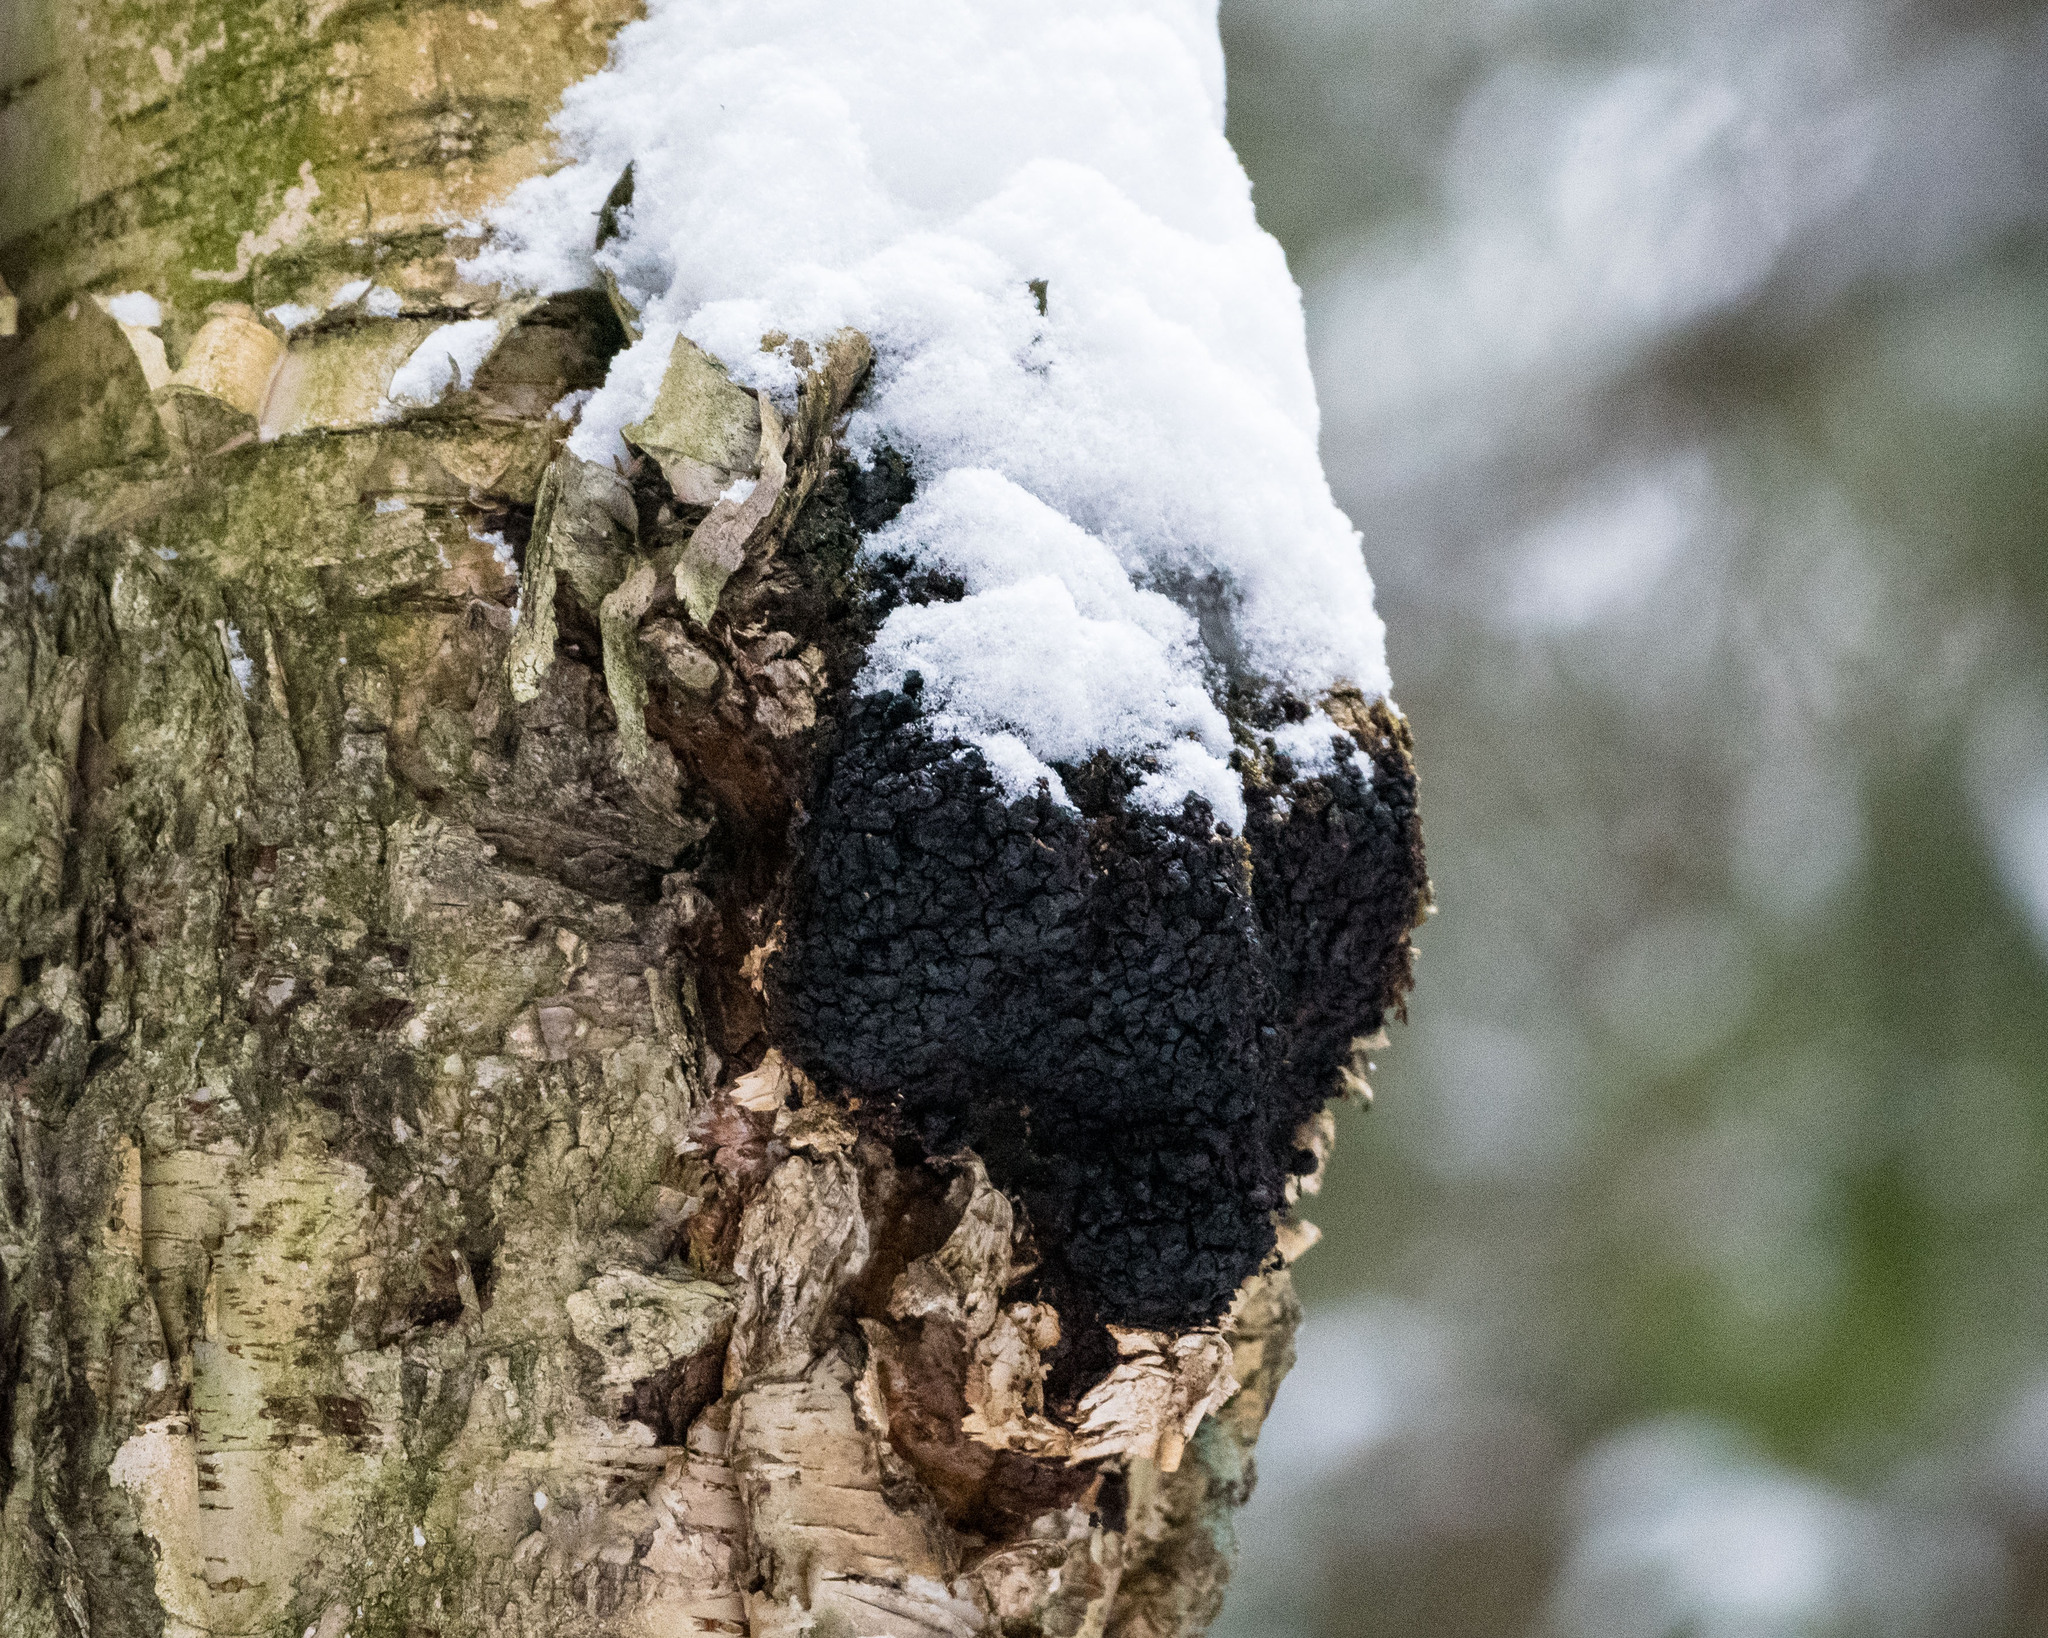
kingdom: Fungi
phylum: Basidiomycota
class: Agaricomycetes
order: Hymenochaetales
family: Hymenochaetaceae
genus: Inonotus
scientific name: Inonotus obliquus
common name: Chaga
